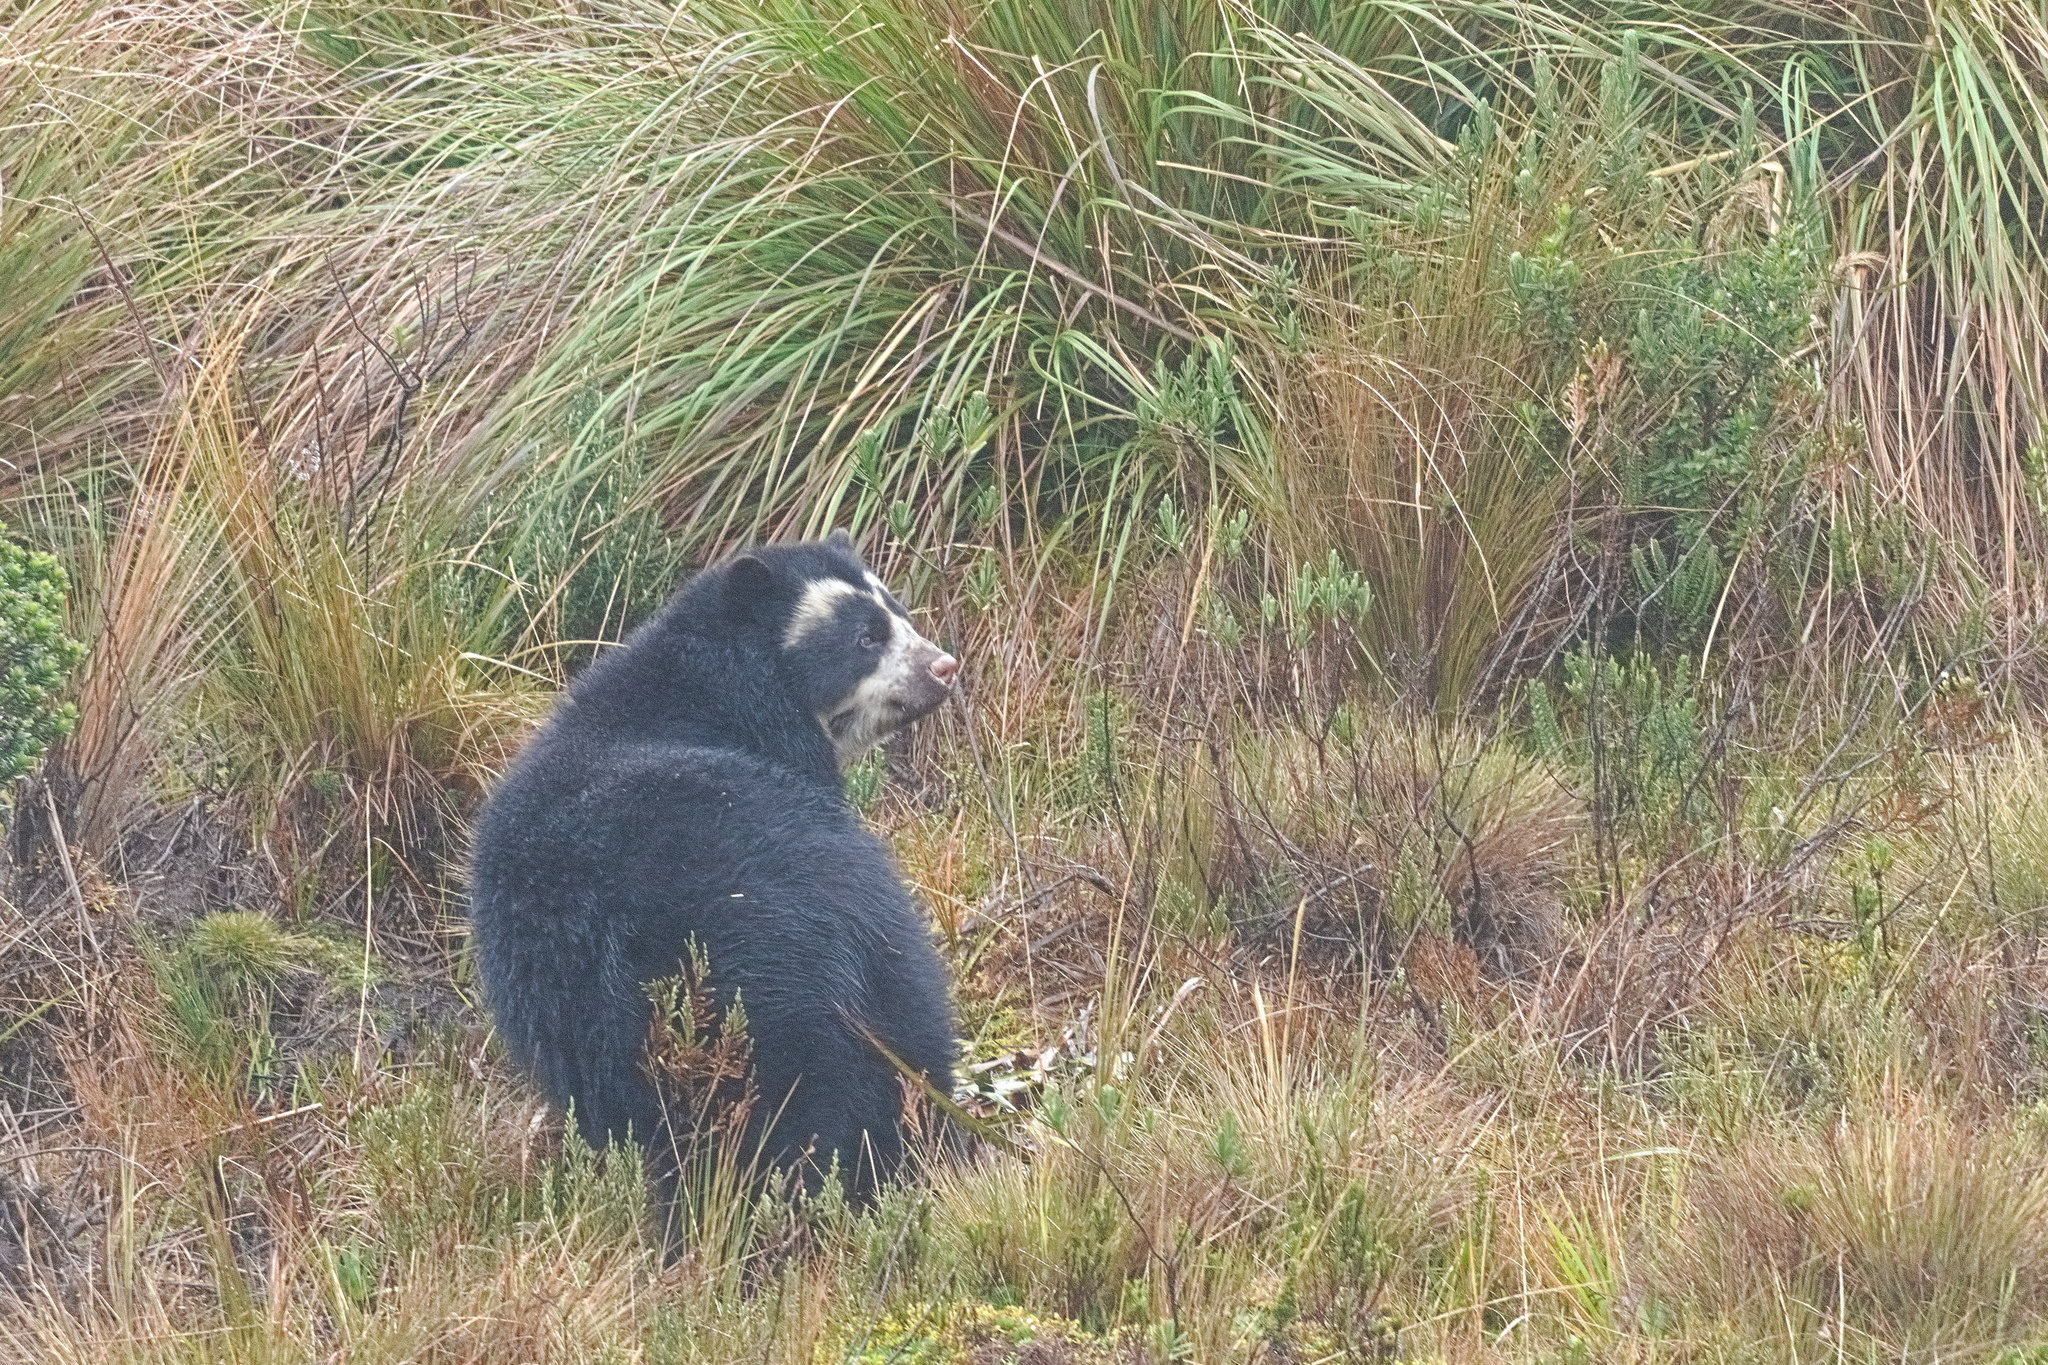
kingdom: Animalia
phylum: Chordata
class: Mammalia
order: Carnivora
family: Ursidae
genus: Tremarctos
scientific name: Tremarctos ornatus
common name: Spectacled bear
